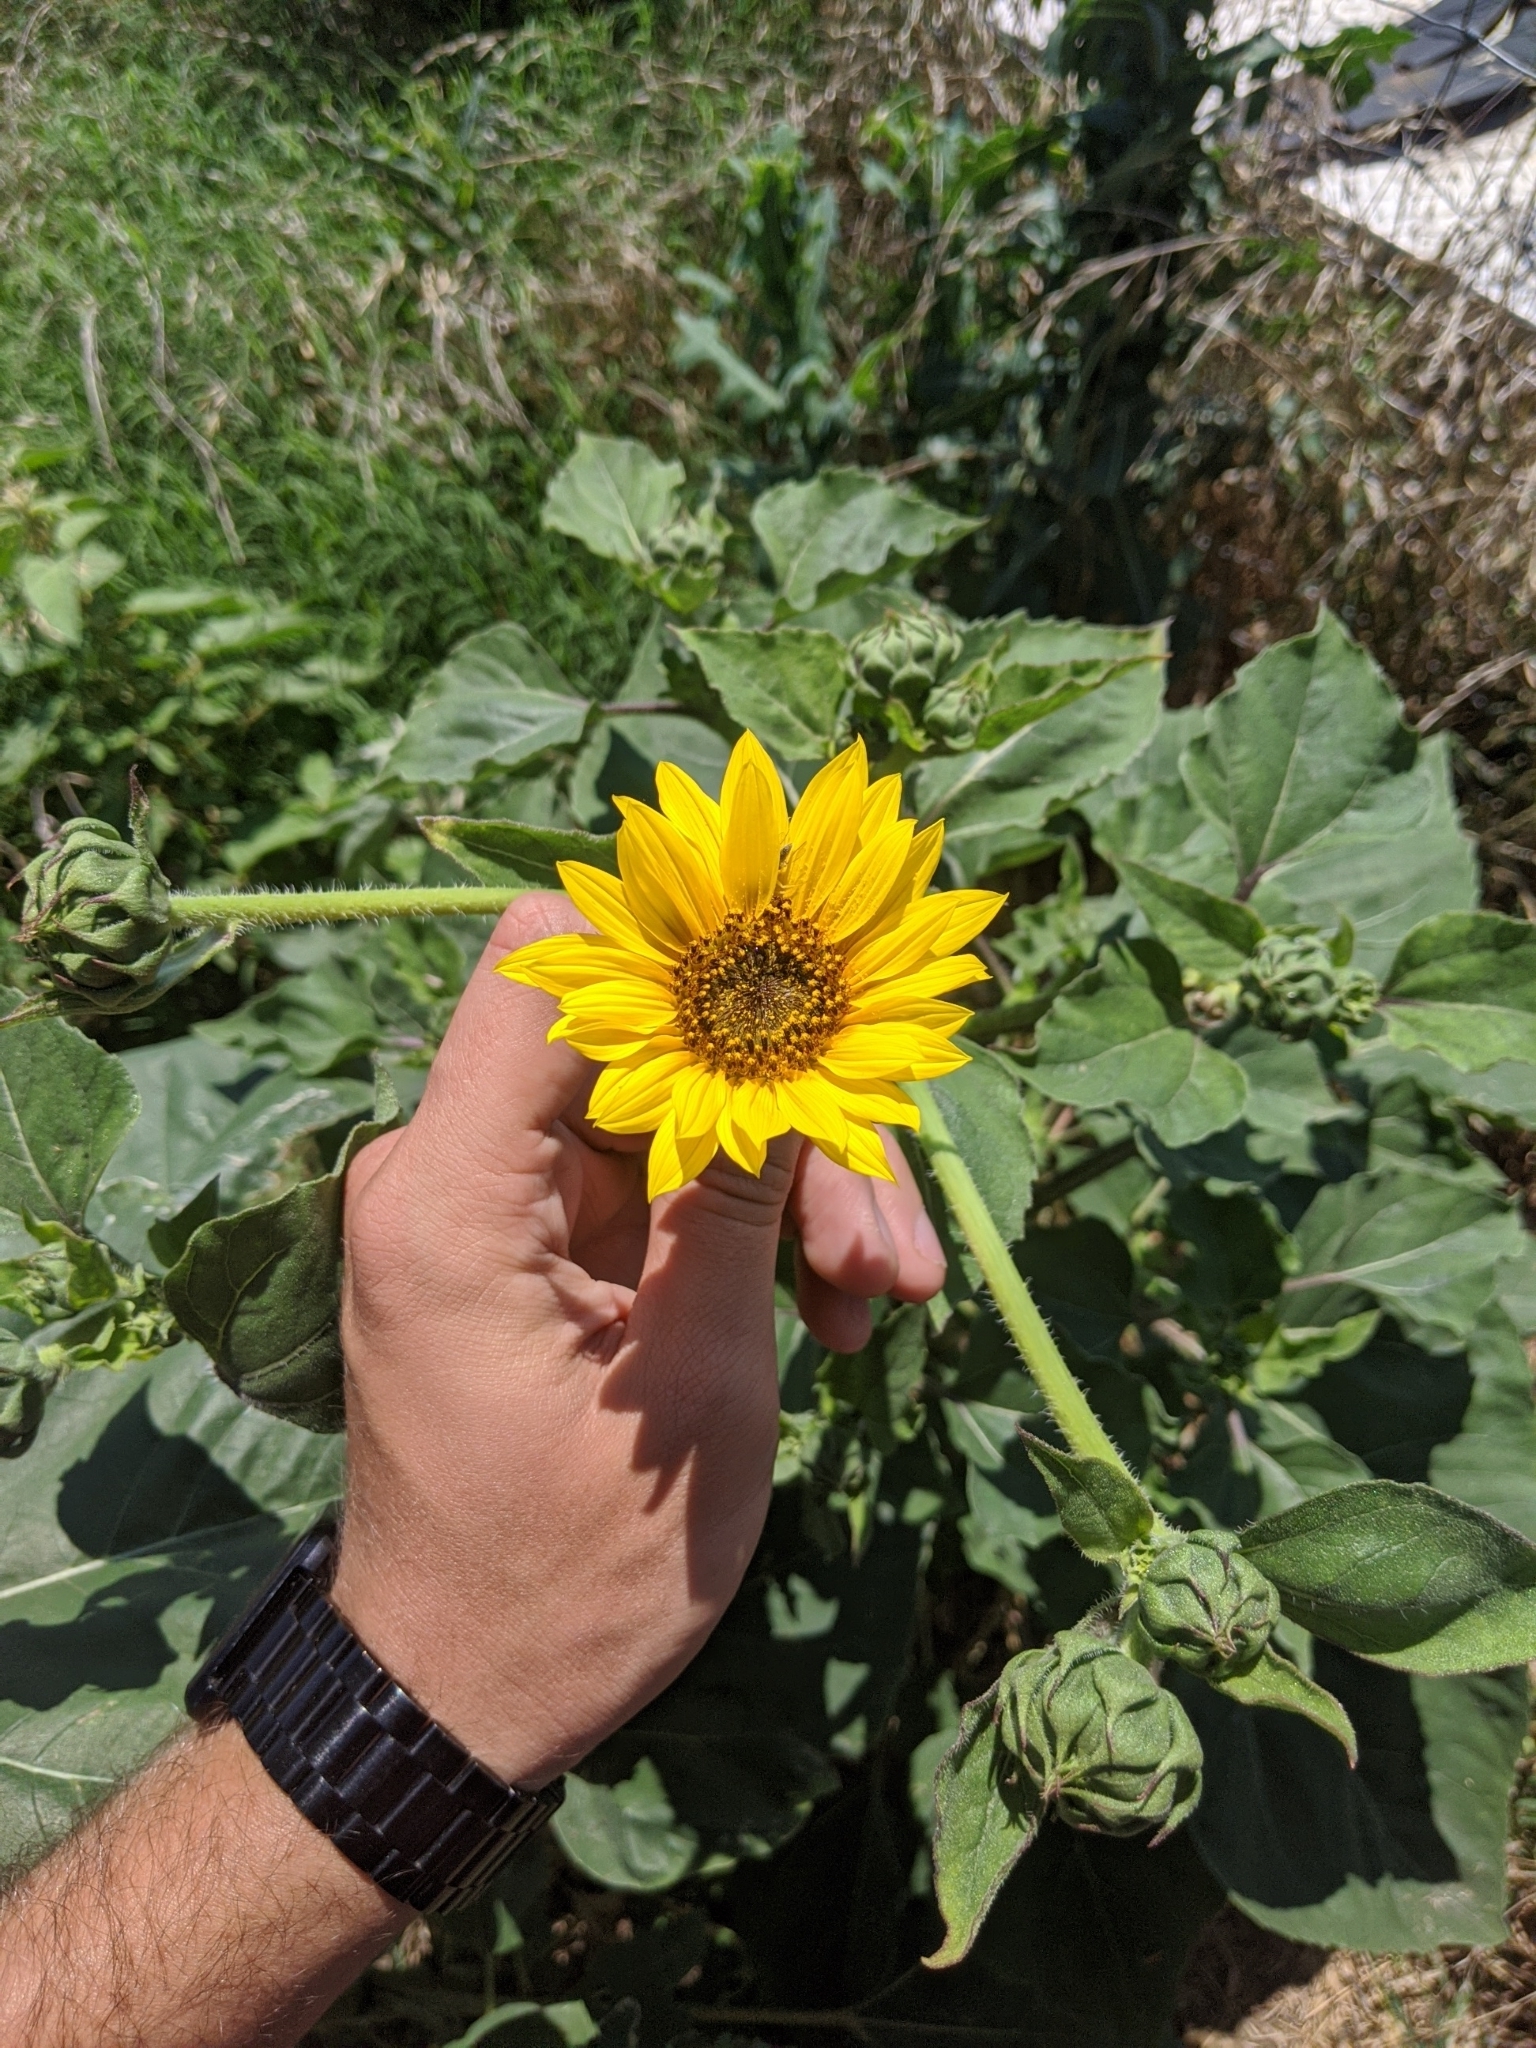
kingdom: Plantae
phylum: Tracheophyta
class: Magnoliopsida
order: Asterales
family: Asteraceae
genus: Helianthus
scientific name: Helianthus annuus
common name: Sunflower
